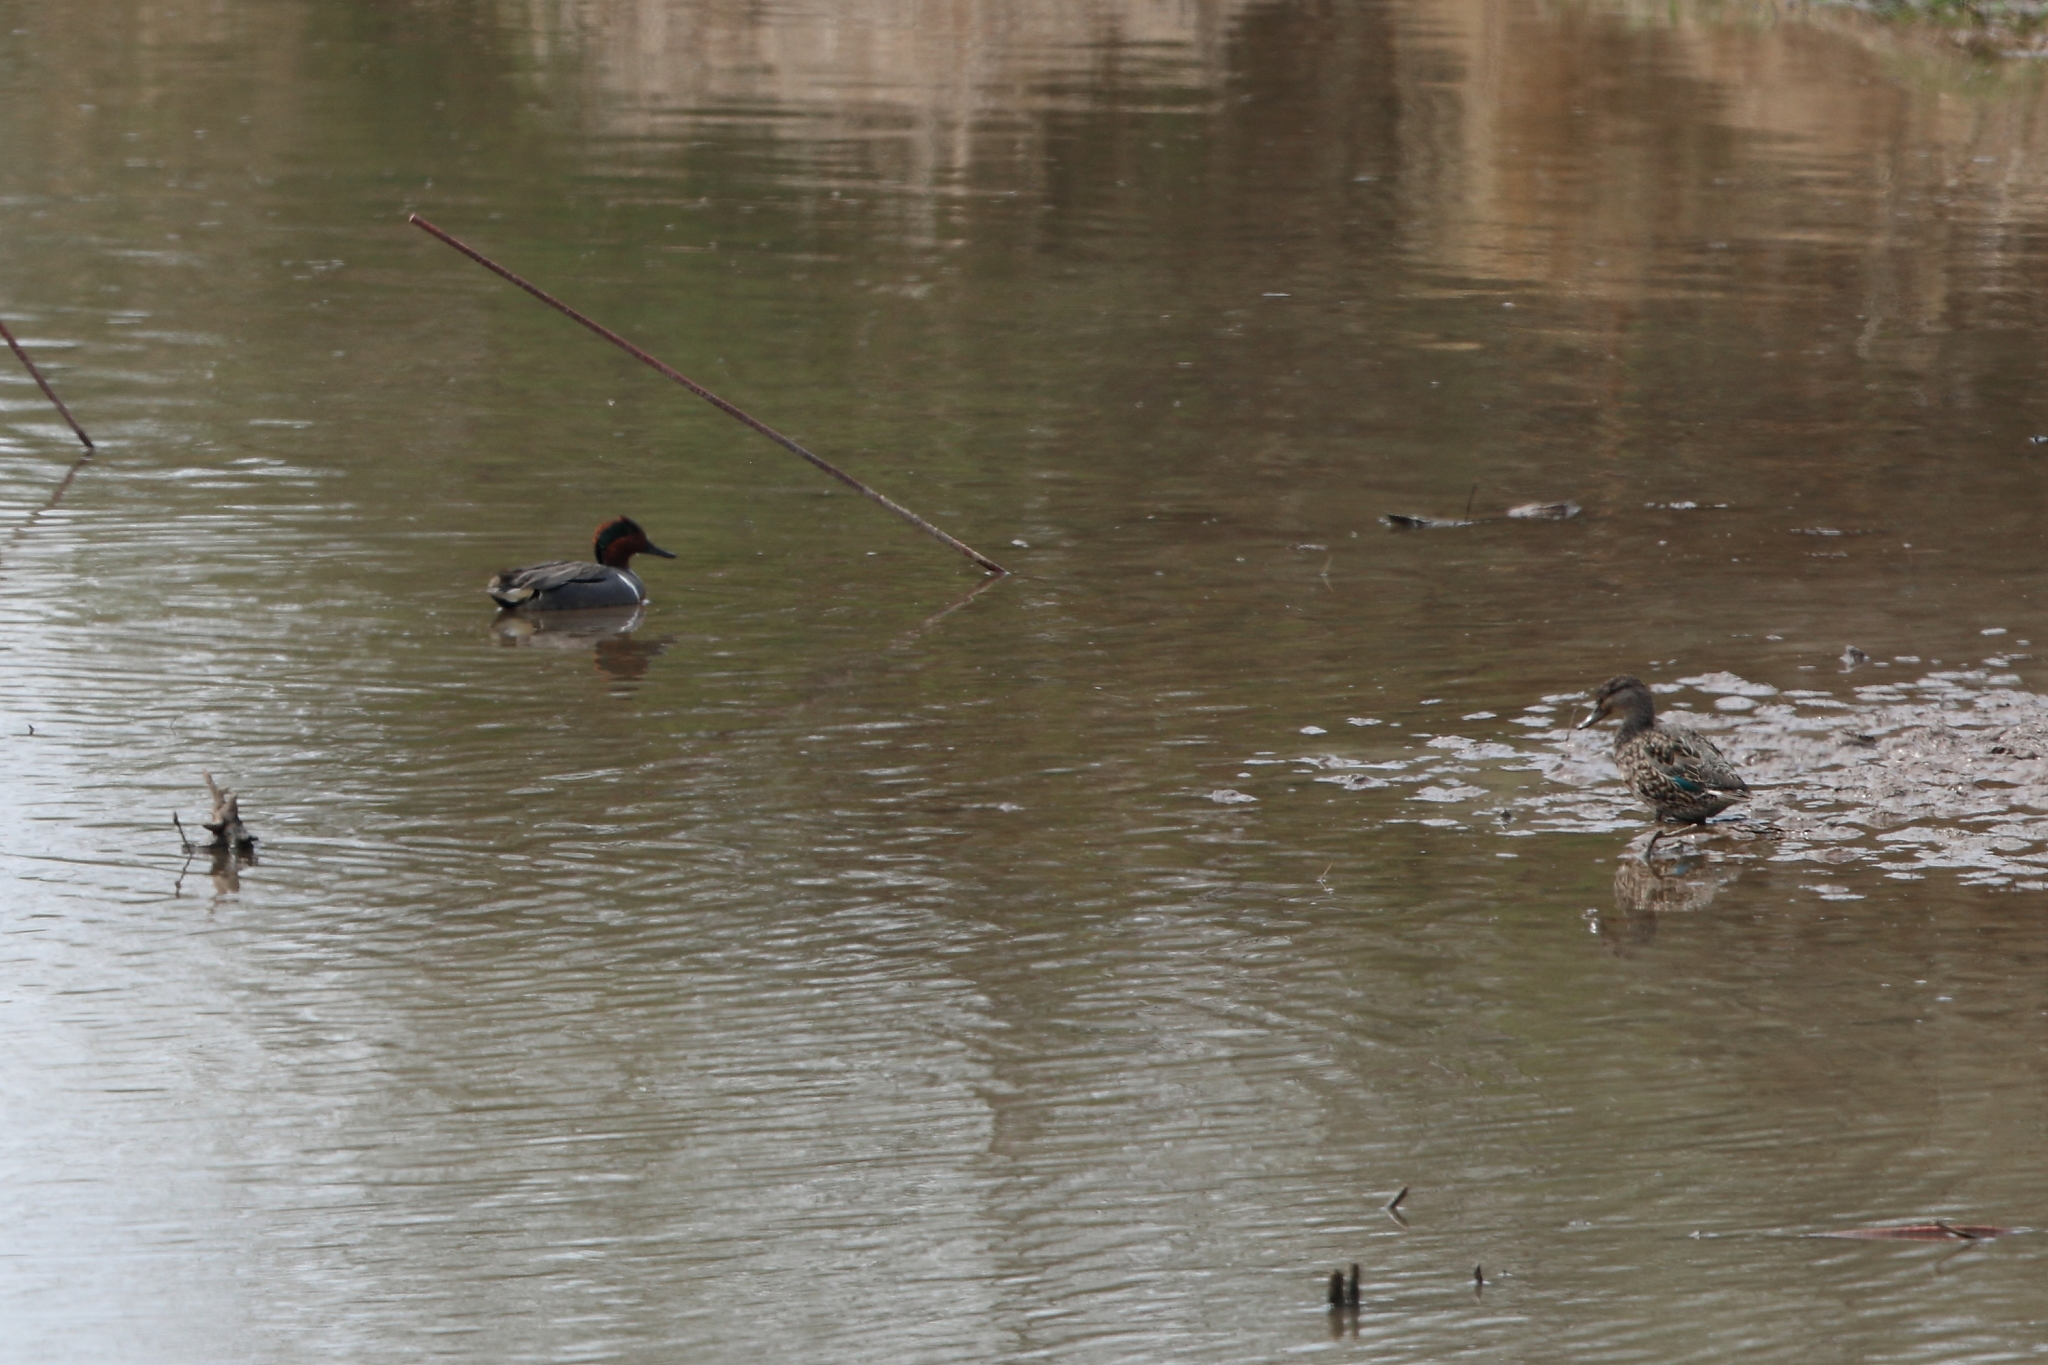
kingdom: Animalia
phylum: Chordata
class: Aves
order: Anseriformes
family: Anatidae
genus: Anas
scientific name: Anas carolinensis
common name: Green-winged teal
